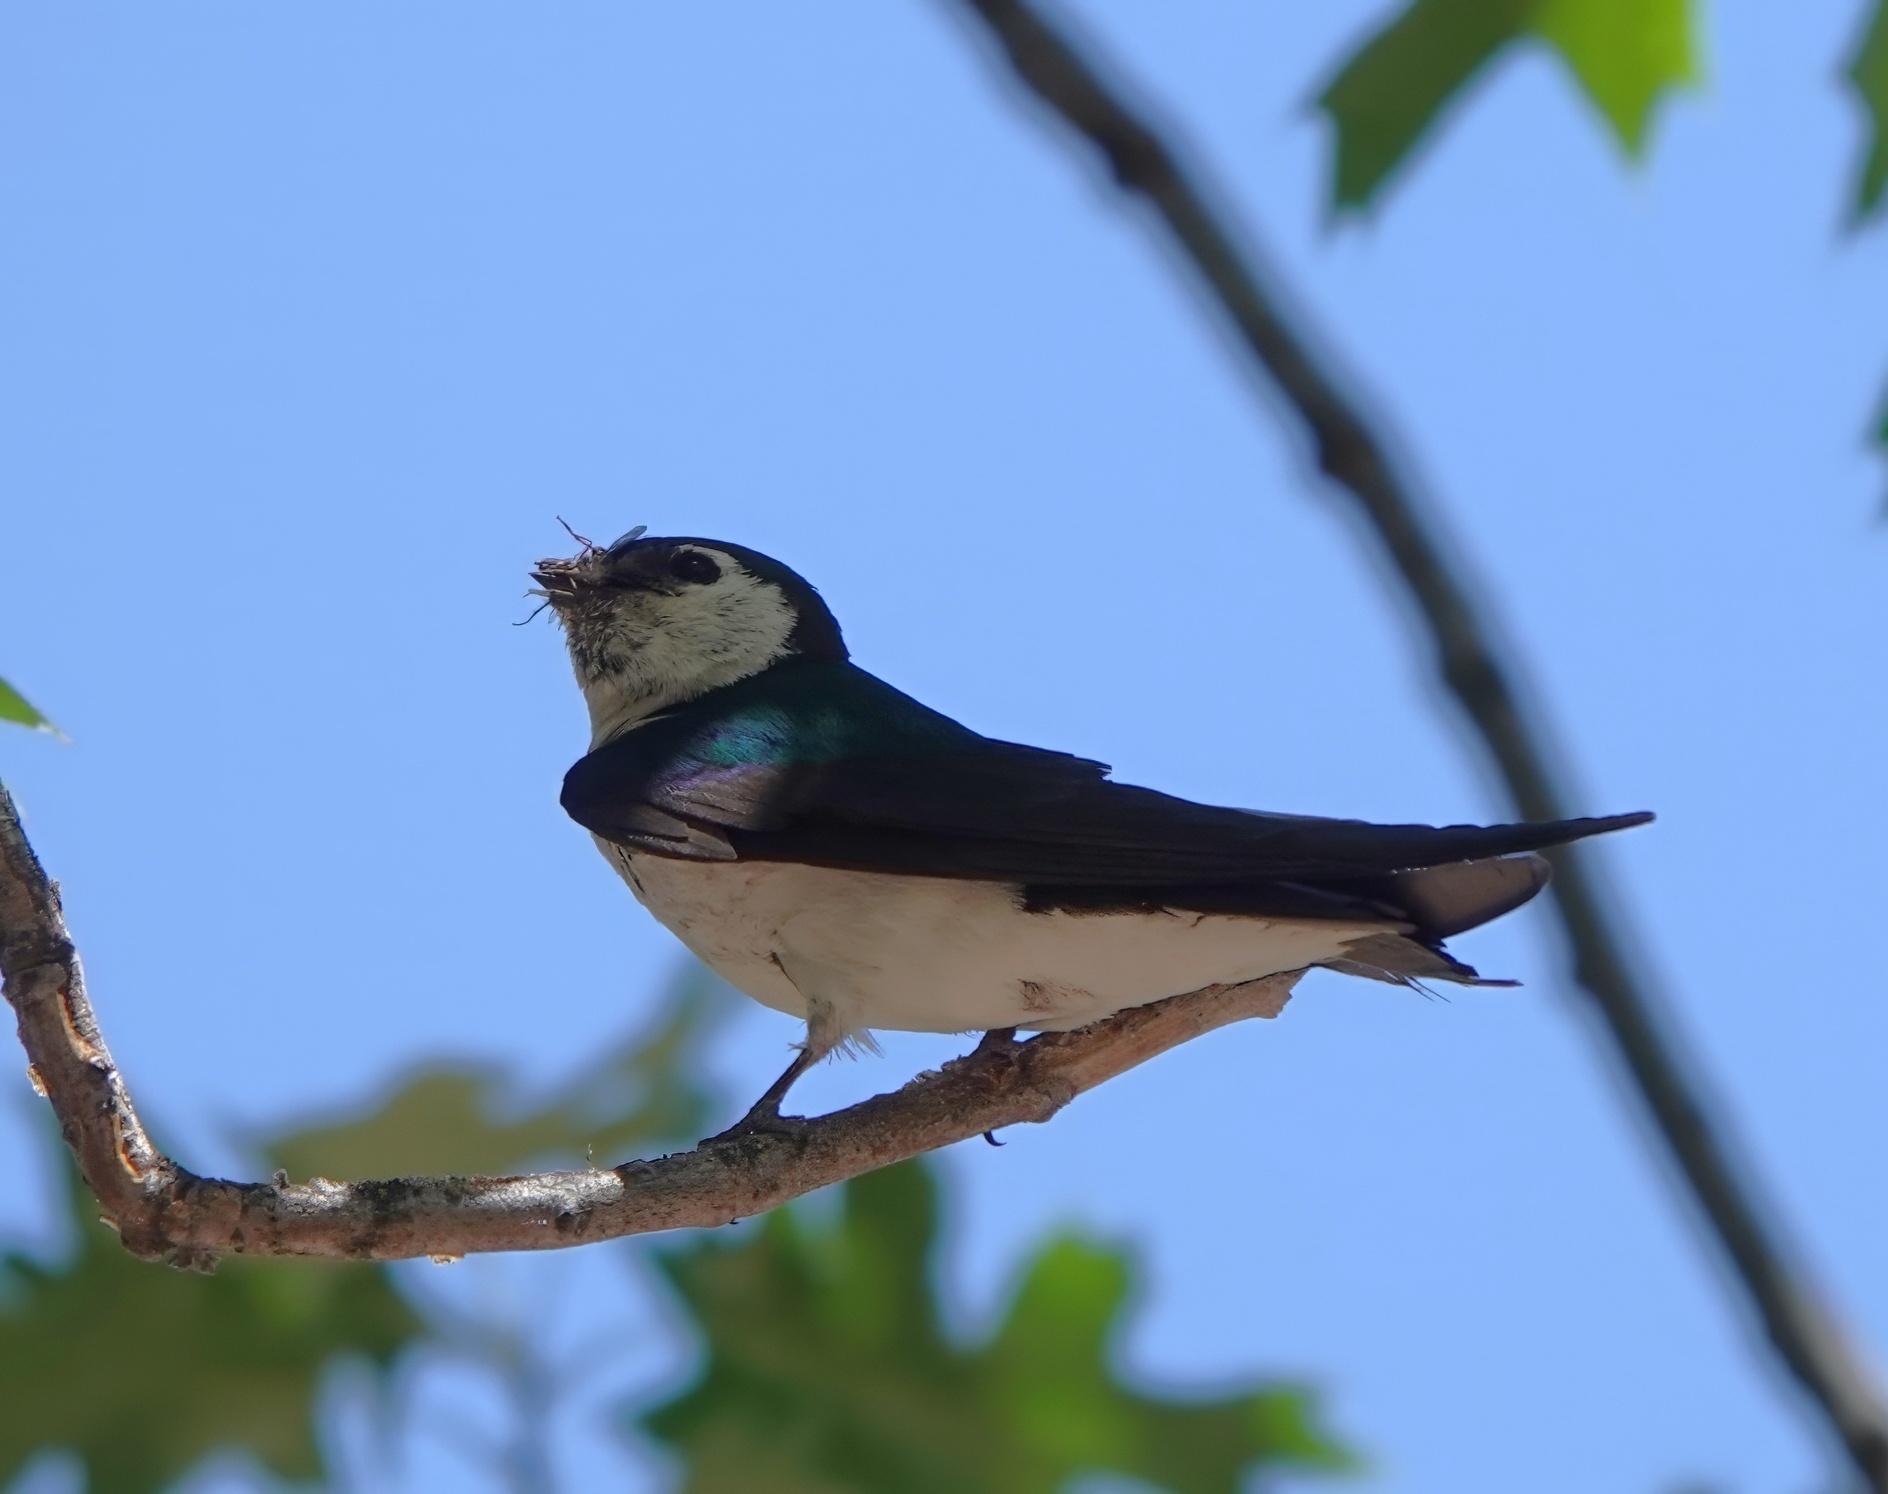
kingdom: Animalia
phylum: Chordata
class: Aves
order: Passeriformes
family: Hirundinidae
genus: Tachycineta
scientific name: Tachycineta thalassina
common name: Violet-green swallow
